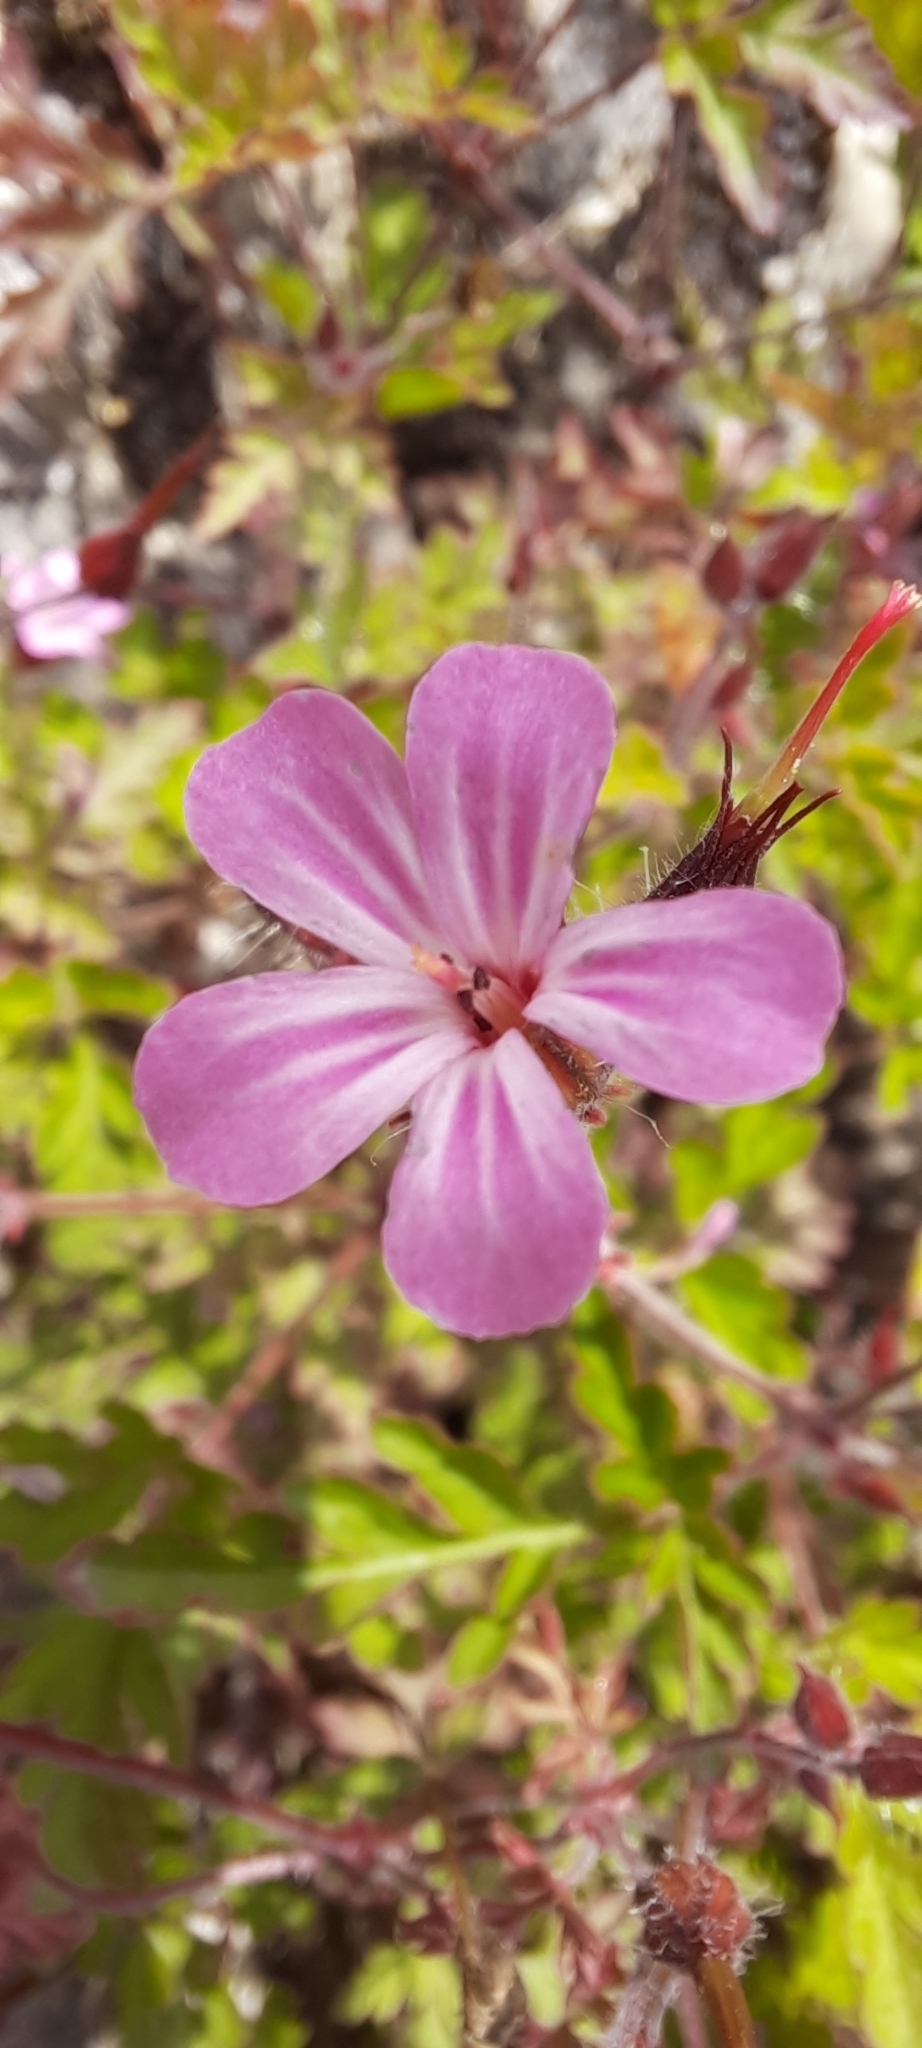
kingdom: Plantae
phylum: Tracheophyta
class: Magnoliopsida
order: Geraniales
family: Geraniaceae
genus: Geranium
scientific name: Geranium robertianum
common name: Herb-robert
